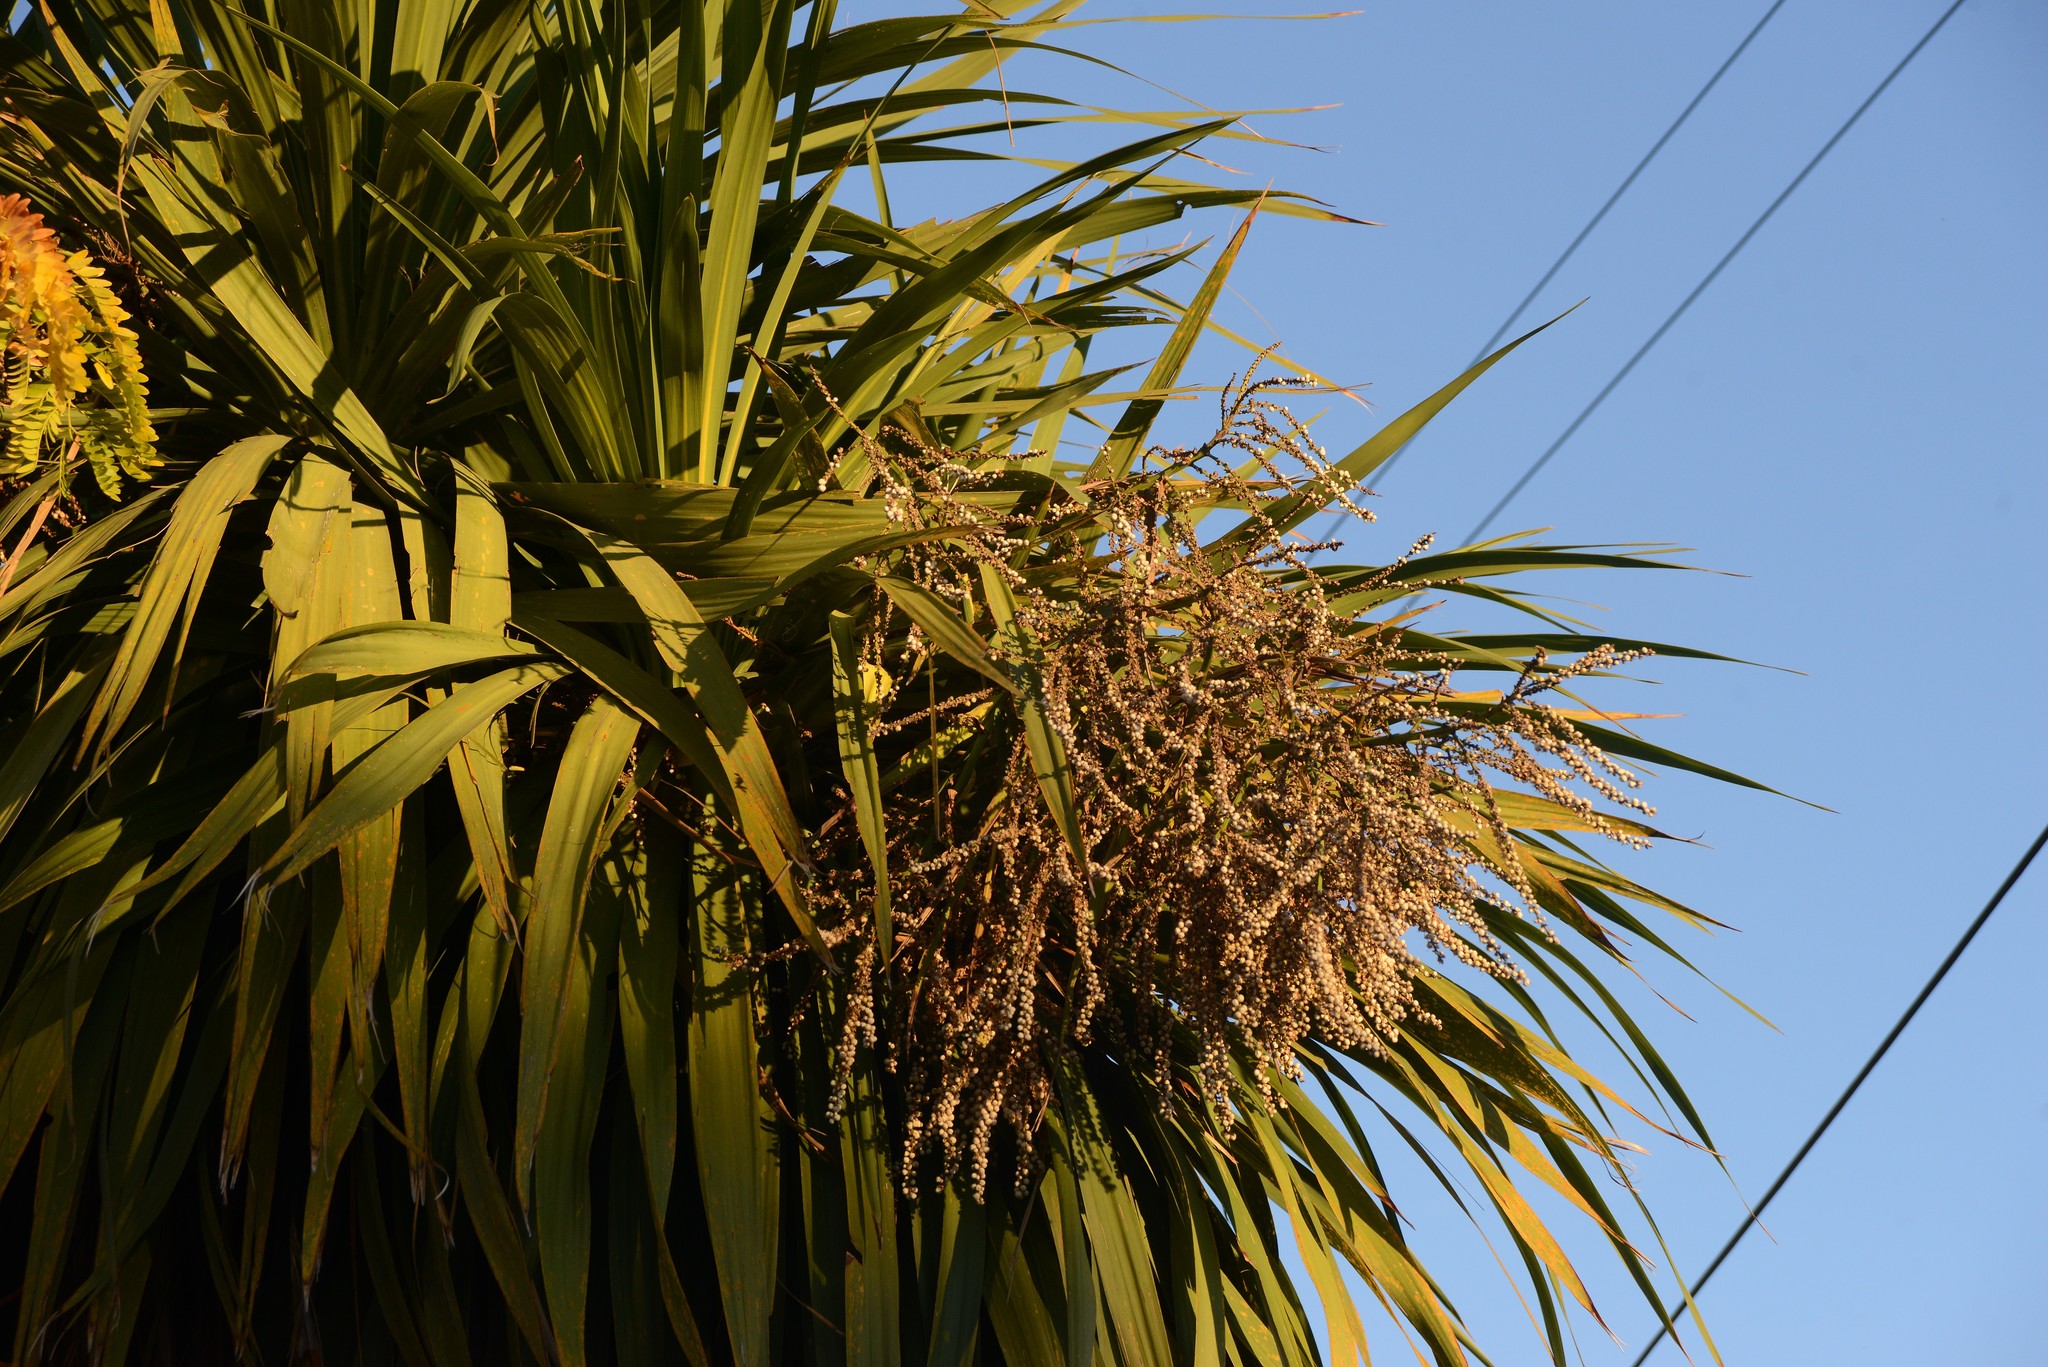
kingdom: Plantae
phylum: Tracheophyta
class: Liliopsida
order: Asparagales
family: Asparagaceae
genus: Cordyline
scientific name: Cordyline australis
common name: Cabbage-palm
